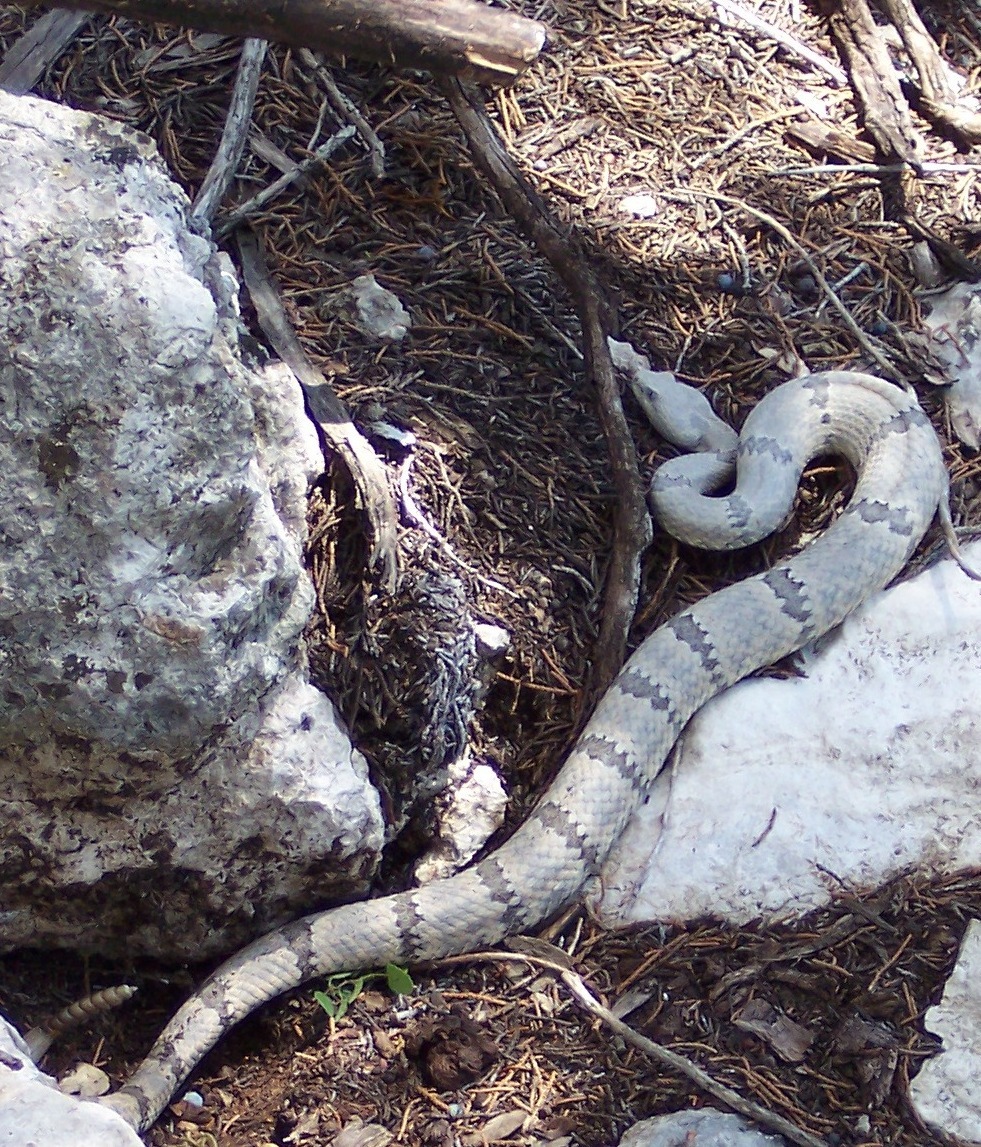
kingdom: Animalia
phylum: Chordata
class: Squamata
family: Viperidae
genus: Crotalus
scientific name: Crotalus lepidus
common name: Rock rattlesnake
